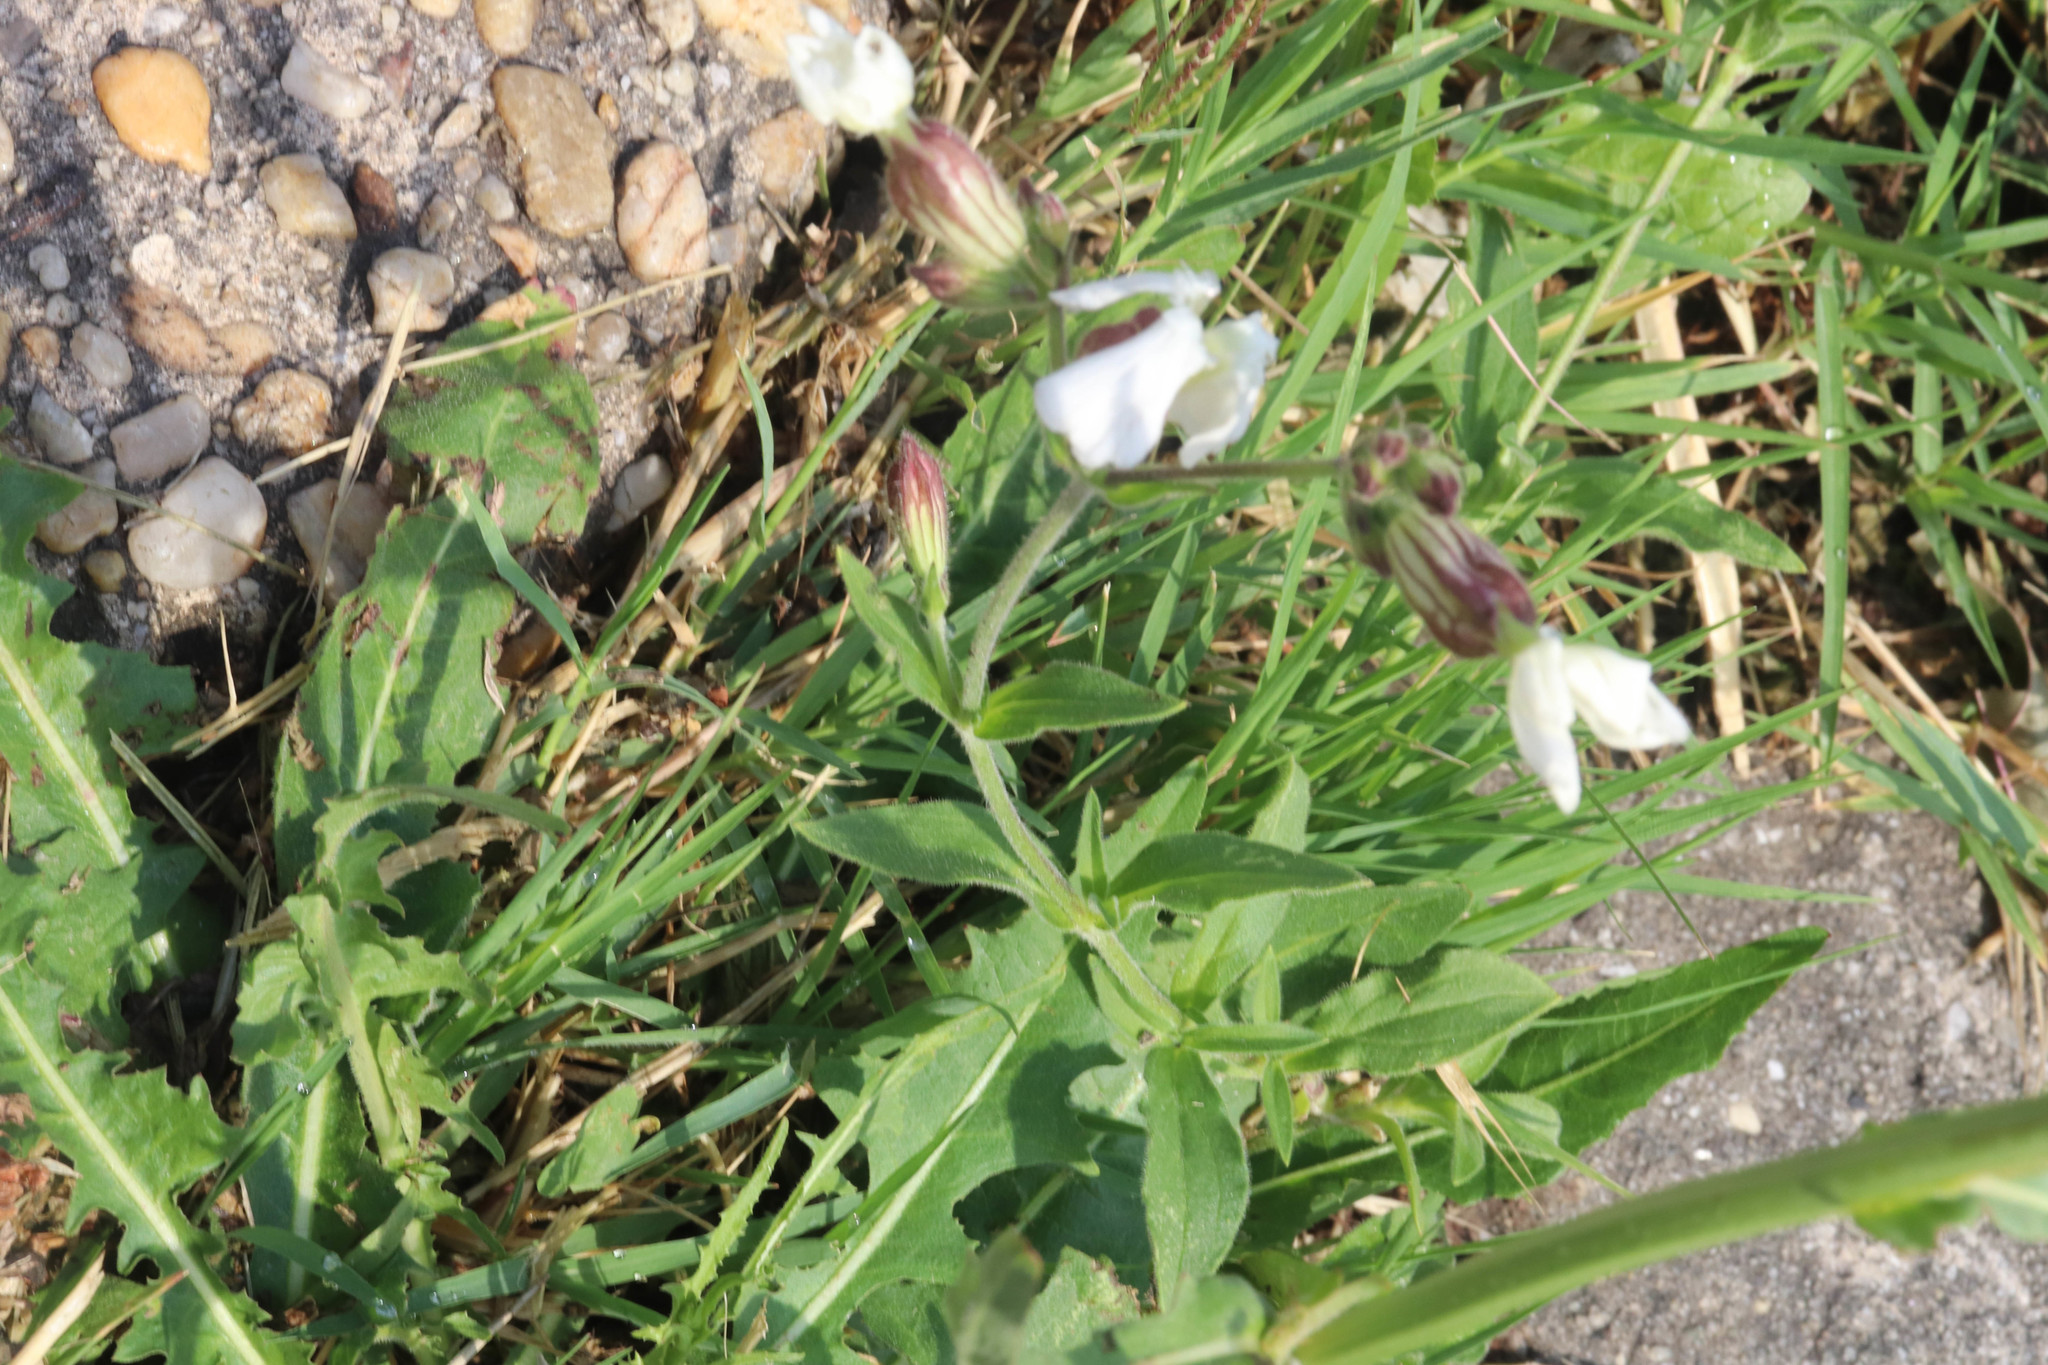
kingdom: Plantae
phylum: Tracheophyta
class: Magnoliopsida
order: Caryophyllales
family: Caryophyllaceae
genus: Silene
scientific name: Silene latifolia
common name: White campion
